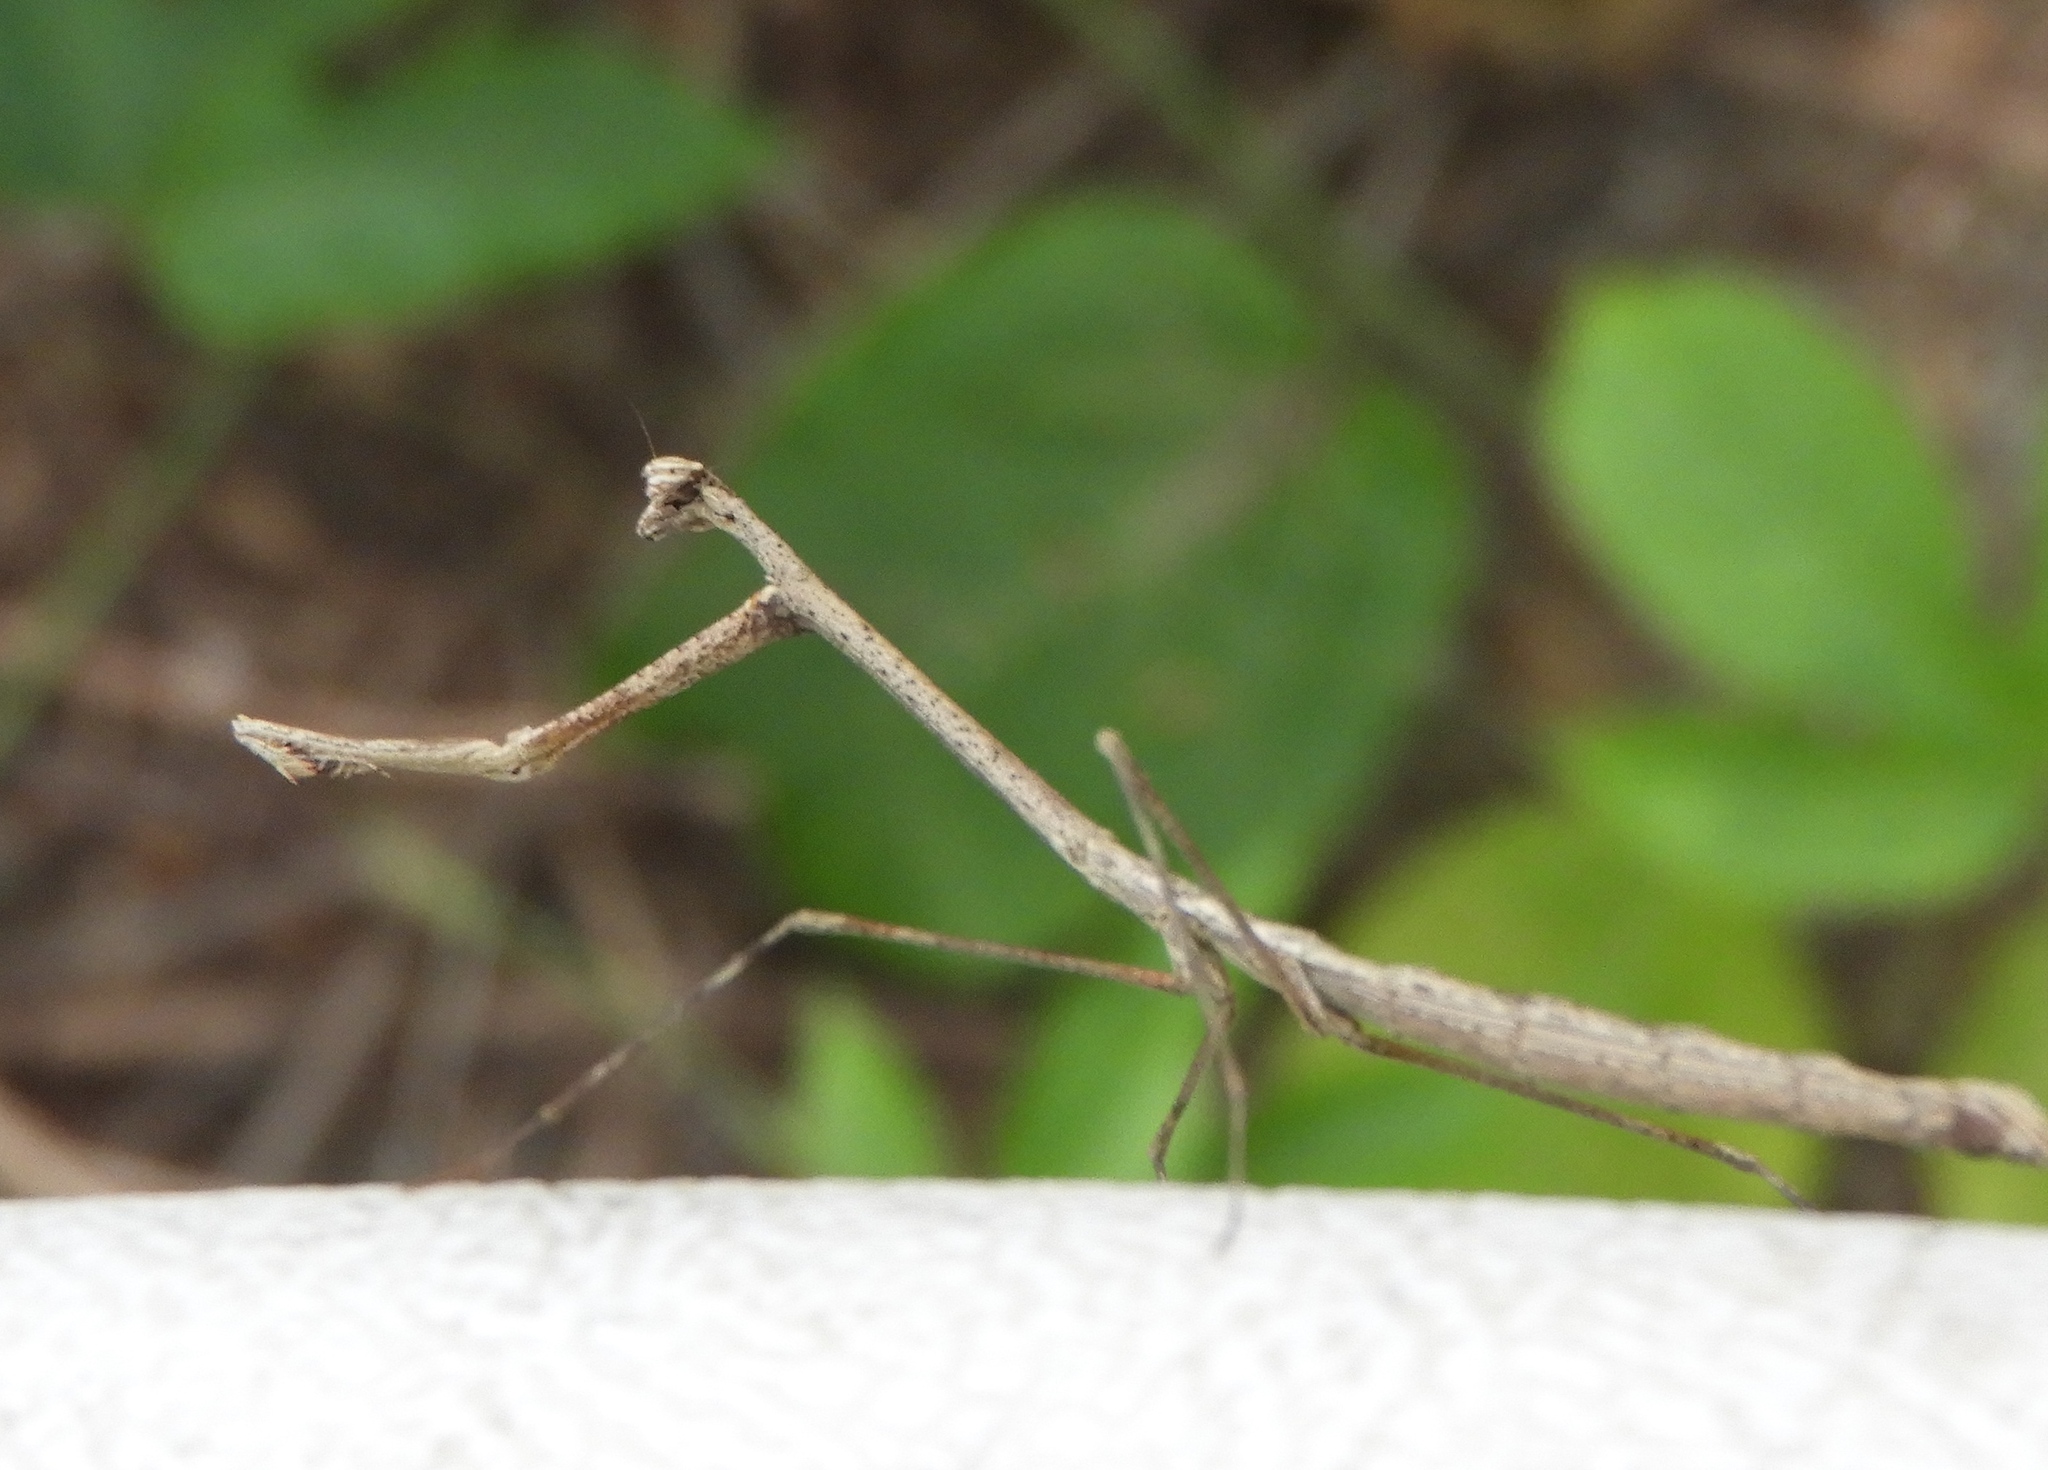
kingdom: Animalia
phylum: Arthropoda
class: Insecta
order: Mantodea
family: Thespidae
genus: Bistanta
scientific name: Bistanta mexicana
